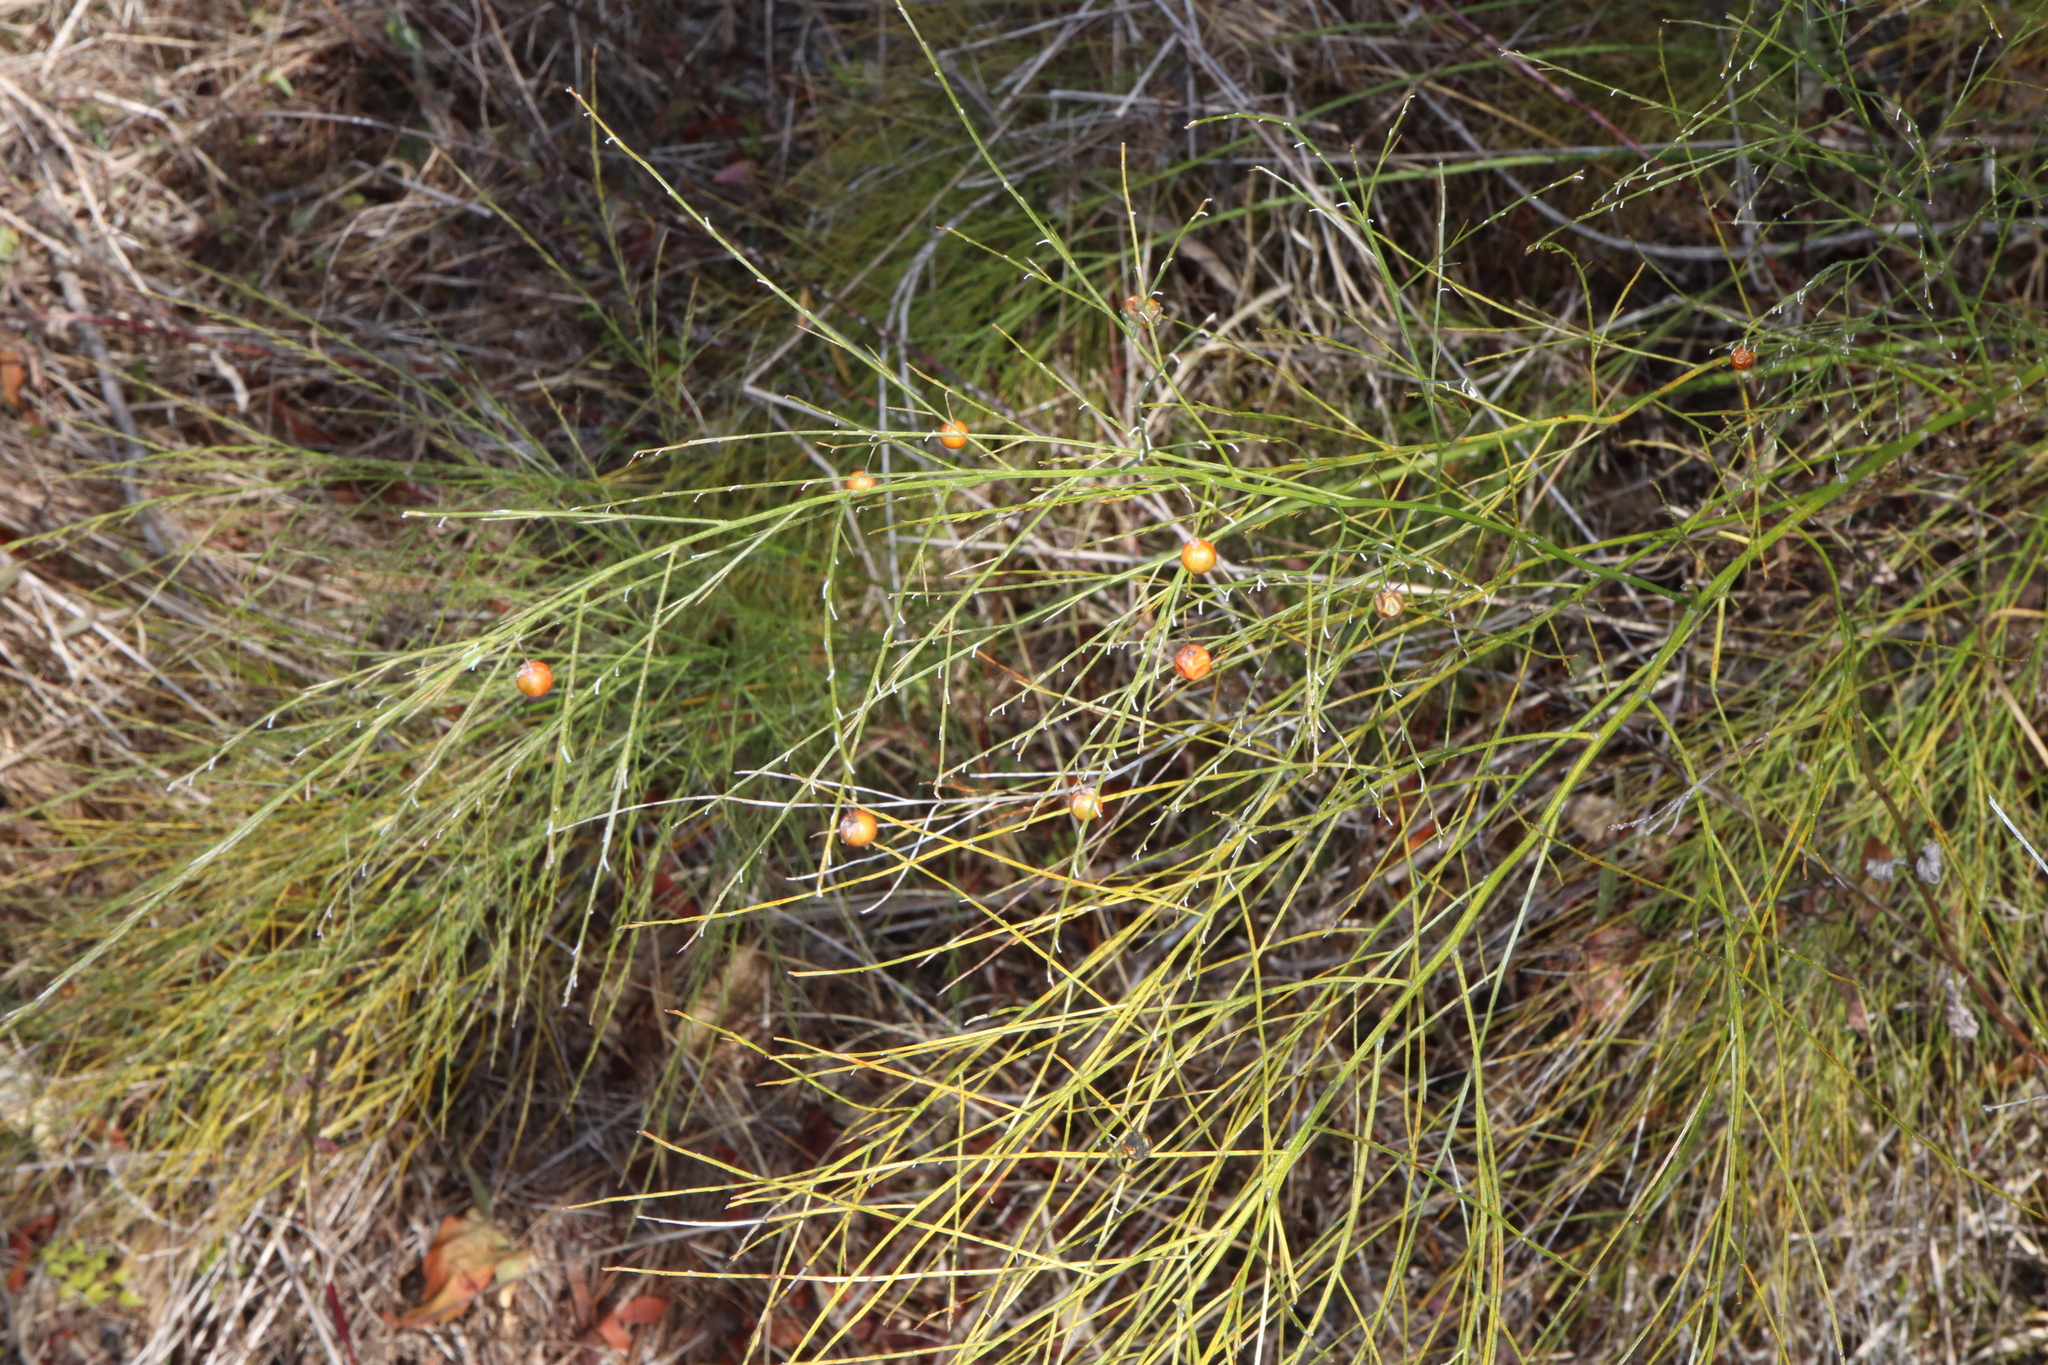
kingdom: Plantae
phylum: Tracheophyta
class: Liliopsida
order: Asparagales
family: Asparagaceae
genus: Asparagus
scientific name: Asparagus officinalis
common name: Garden asparagus
